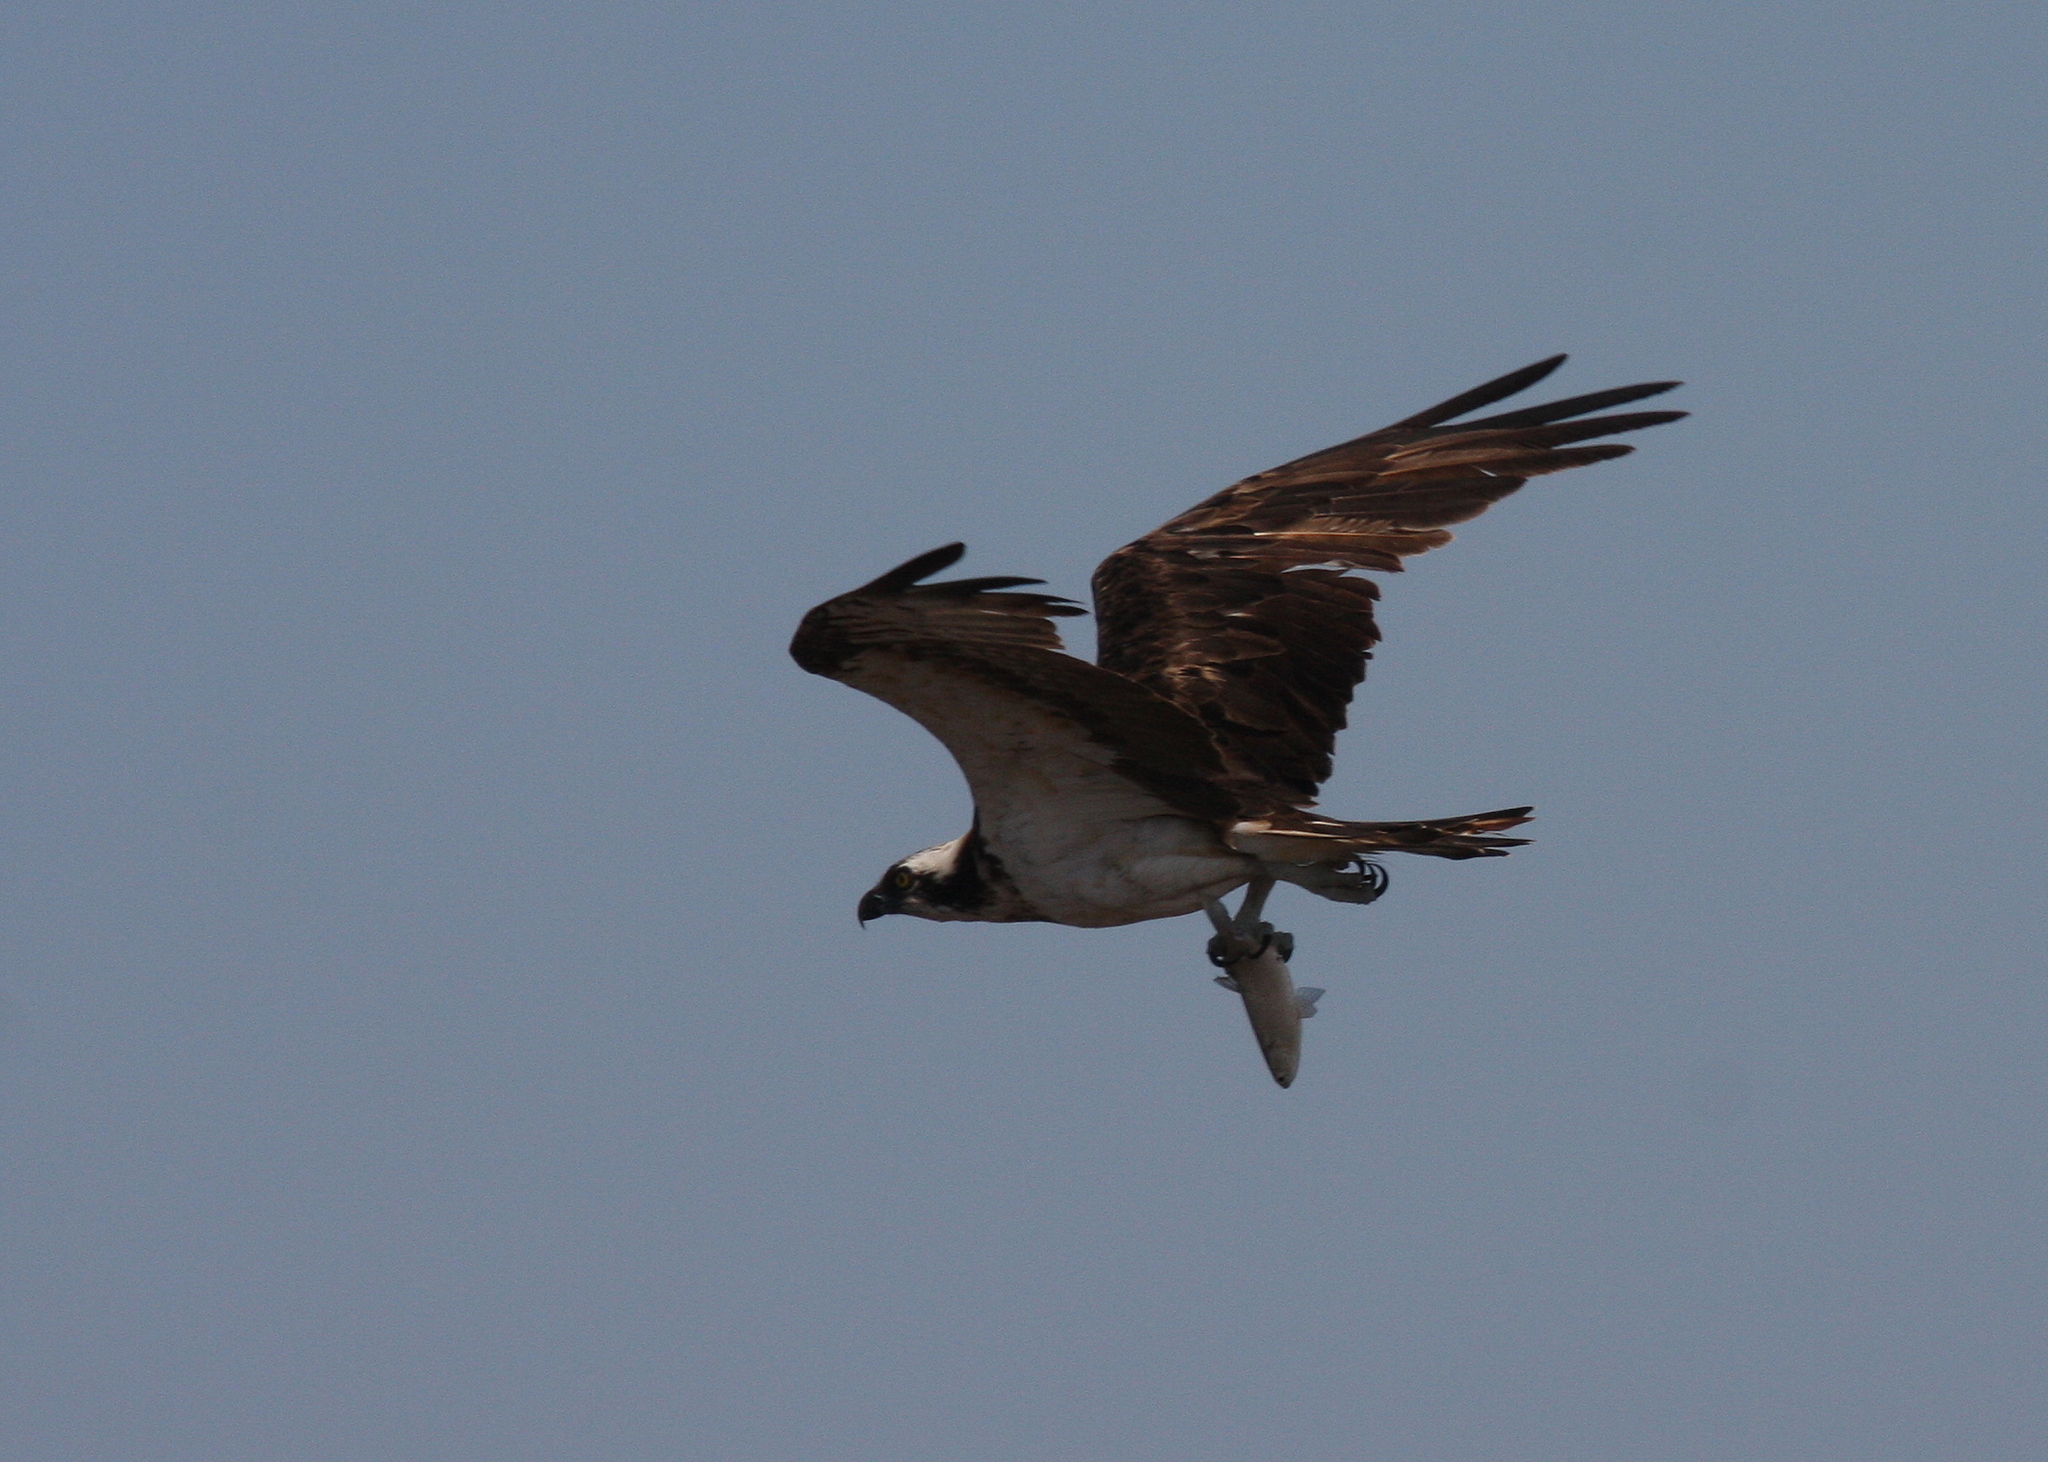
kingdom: Animalia
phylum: Chordata
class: Aves
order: Accipitriformes
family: Pandionidae
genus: Pandion
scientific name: Pandion haliaetus
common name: Osprey
